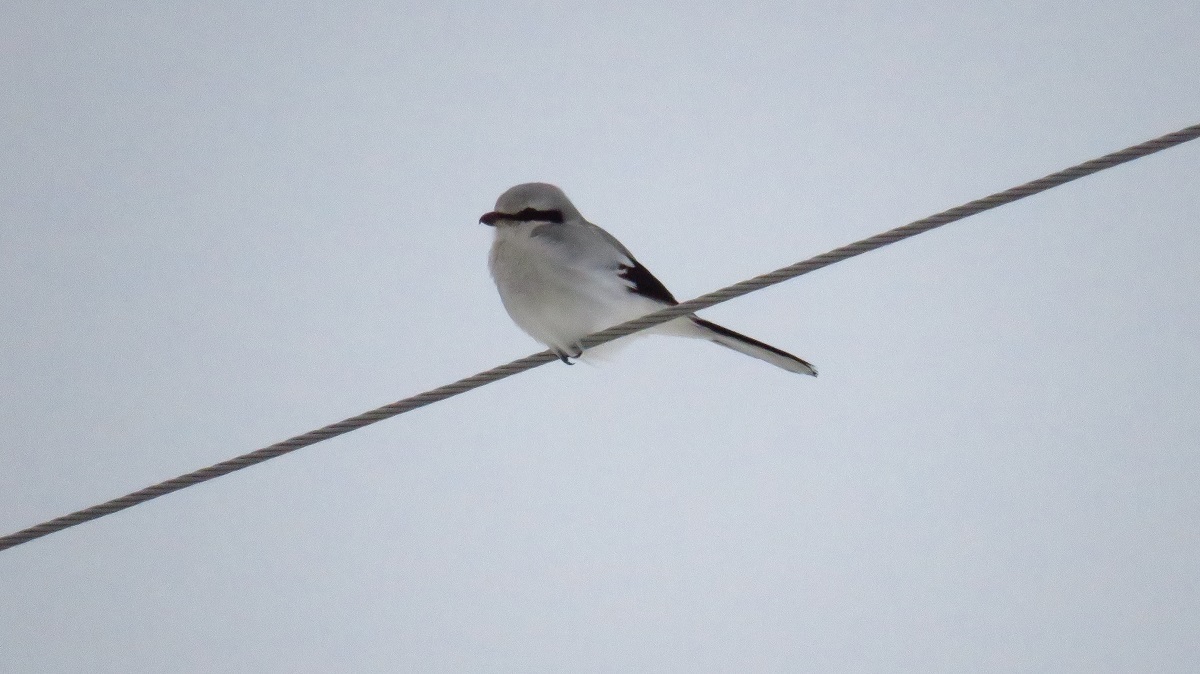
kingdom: Animalia
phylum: Chordata
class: Aves
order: Passeriformes
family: Laniidae
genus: Lanius
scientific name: Lanius excubitor
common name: Great grey shrike
